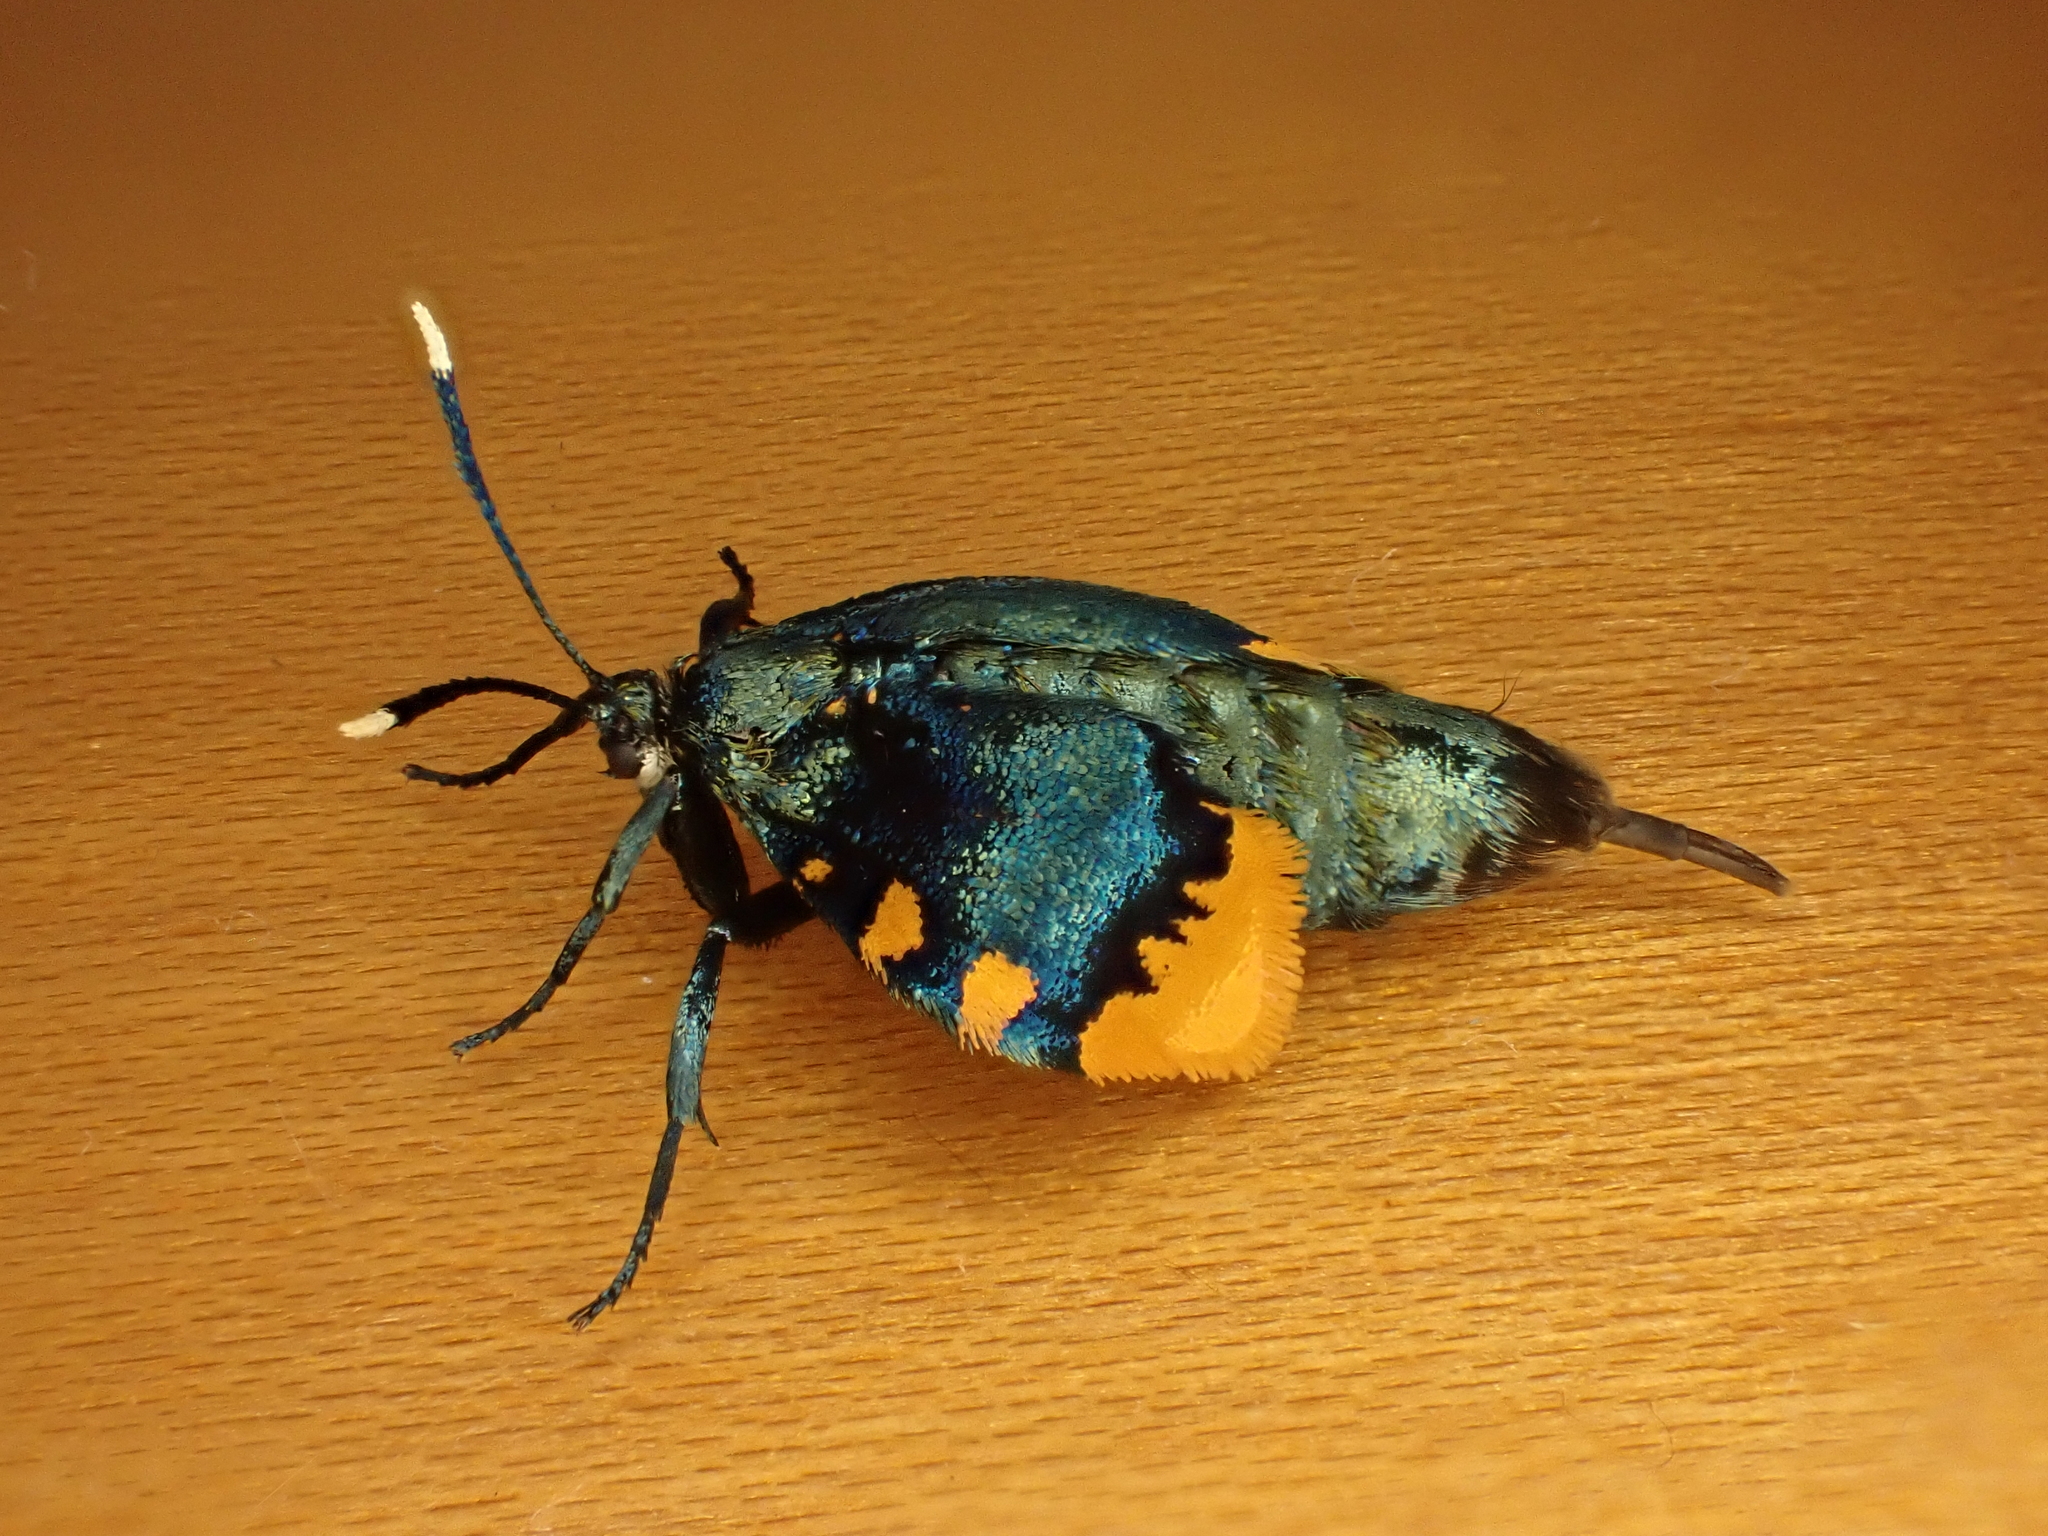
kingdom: Animalia
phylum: Arthropoda
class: Insecta
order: Lepidoptera
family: Psychidae
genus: Cebysa
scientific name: Cebysa leucotelus
